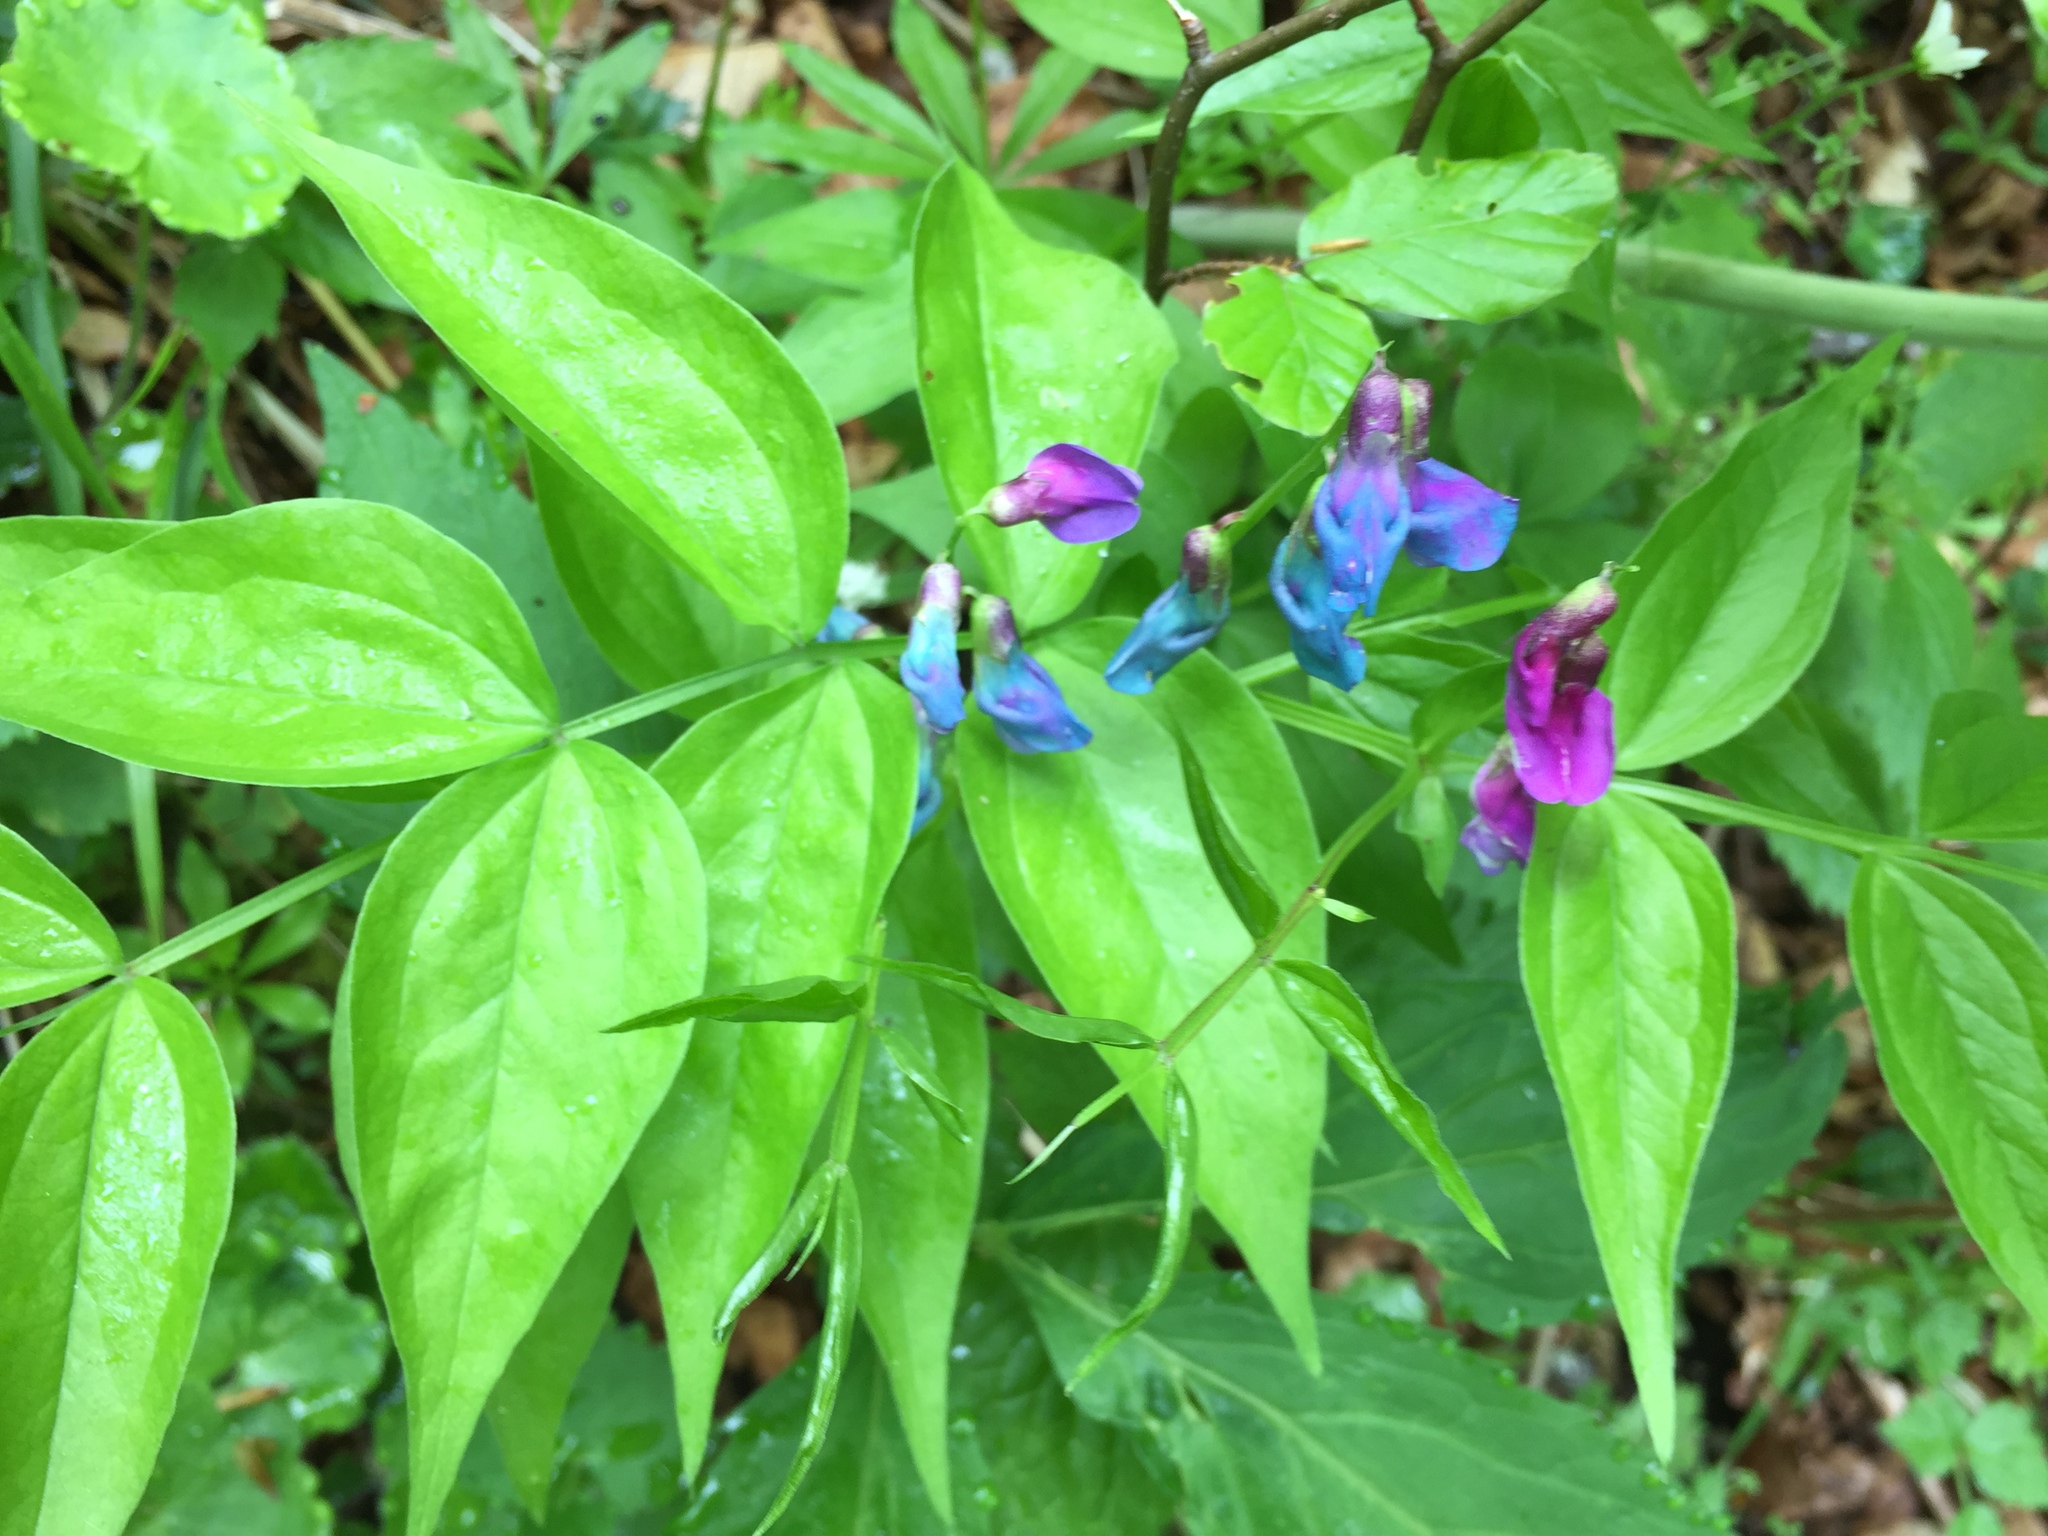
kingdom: Plantae
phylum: Tracheophyta
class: Magnoliopsida
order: Fabales
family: Fabaceae
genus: Lathyrus
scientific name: Lathyrus vernus
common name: Spring pea
